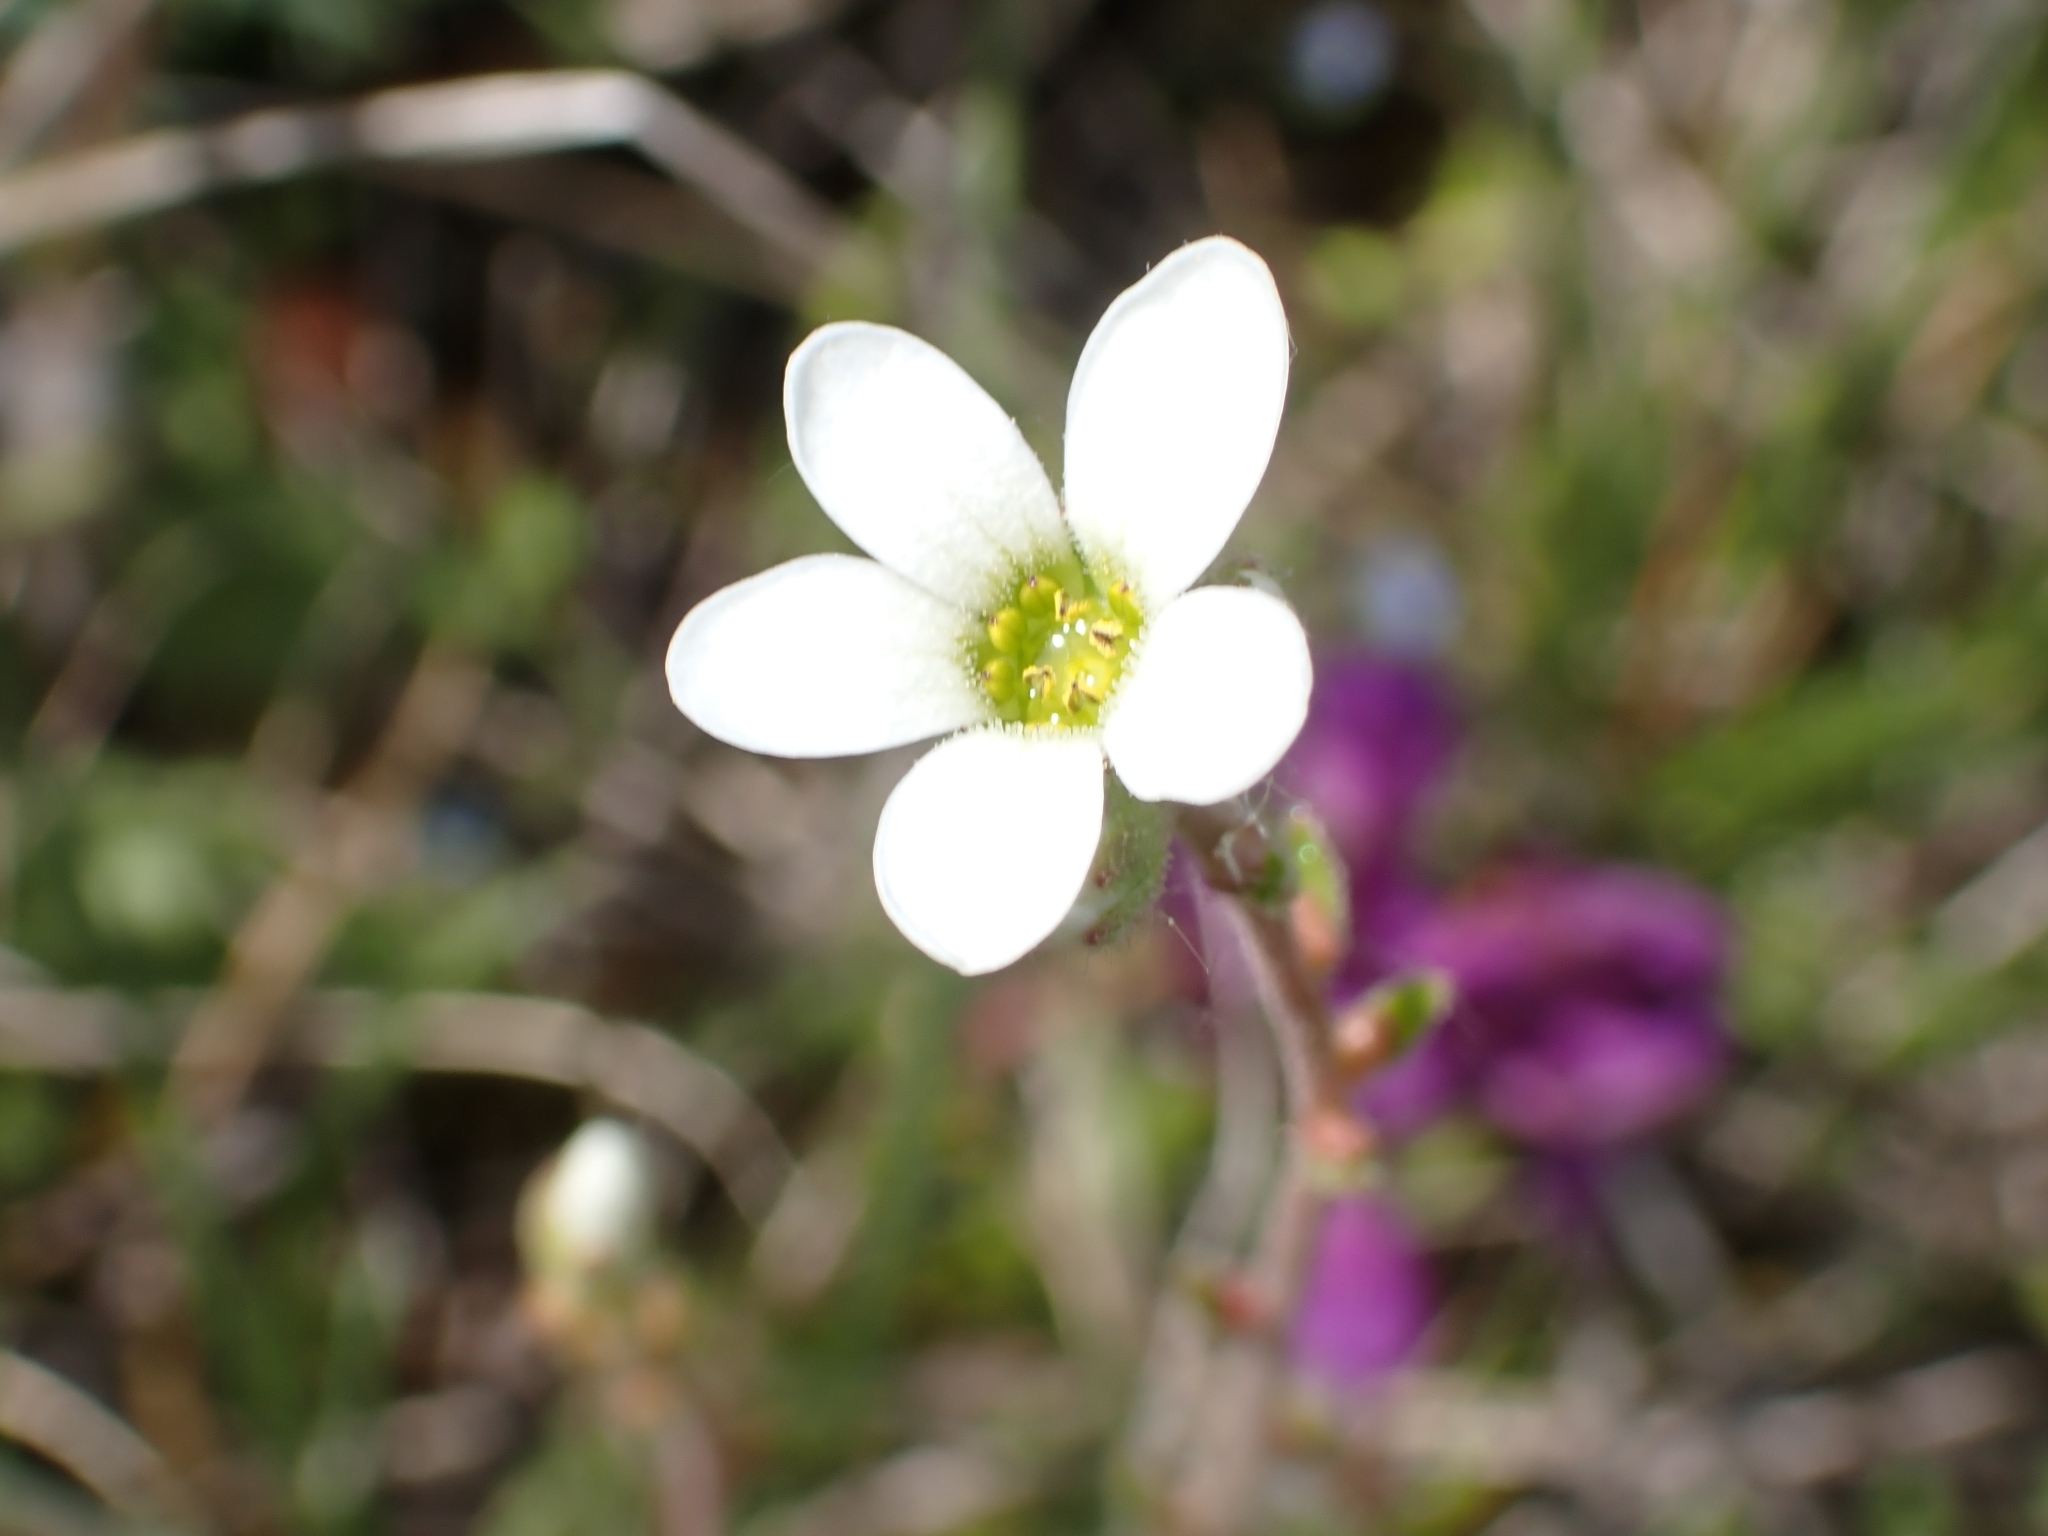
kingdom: Plantae
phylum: Tracheophyta
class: Magnoliopsida
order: Saxifragales
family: Saxifragaceae
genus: Saxifraga
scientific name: Saxifraga bulbifera
